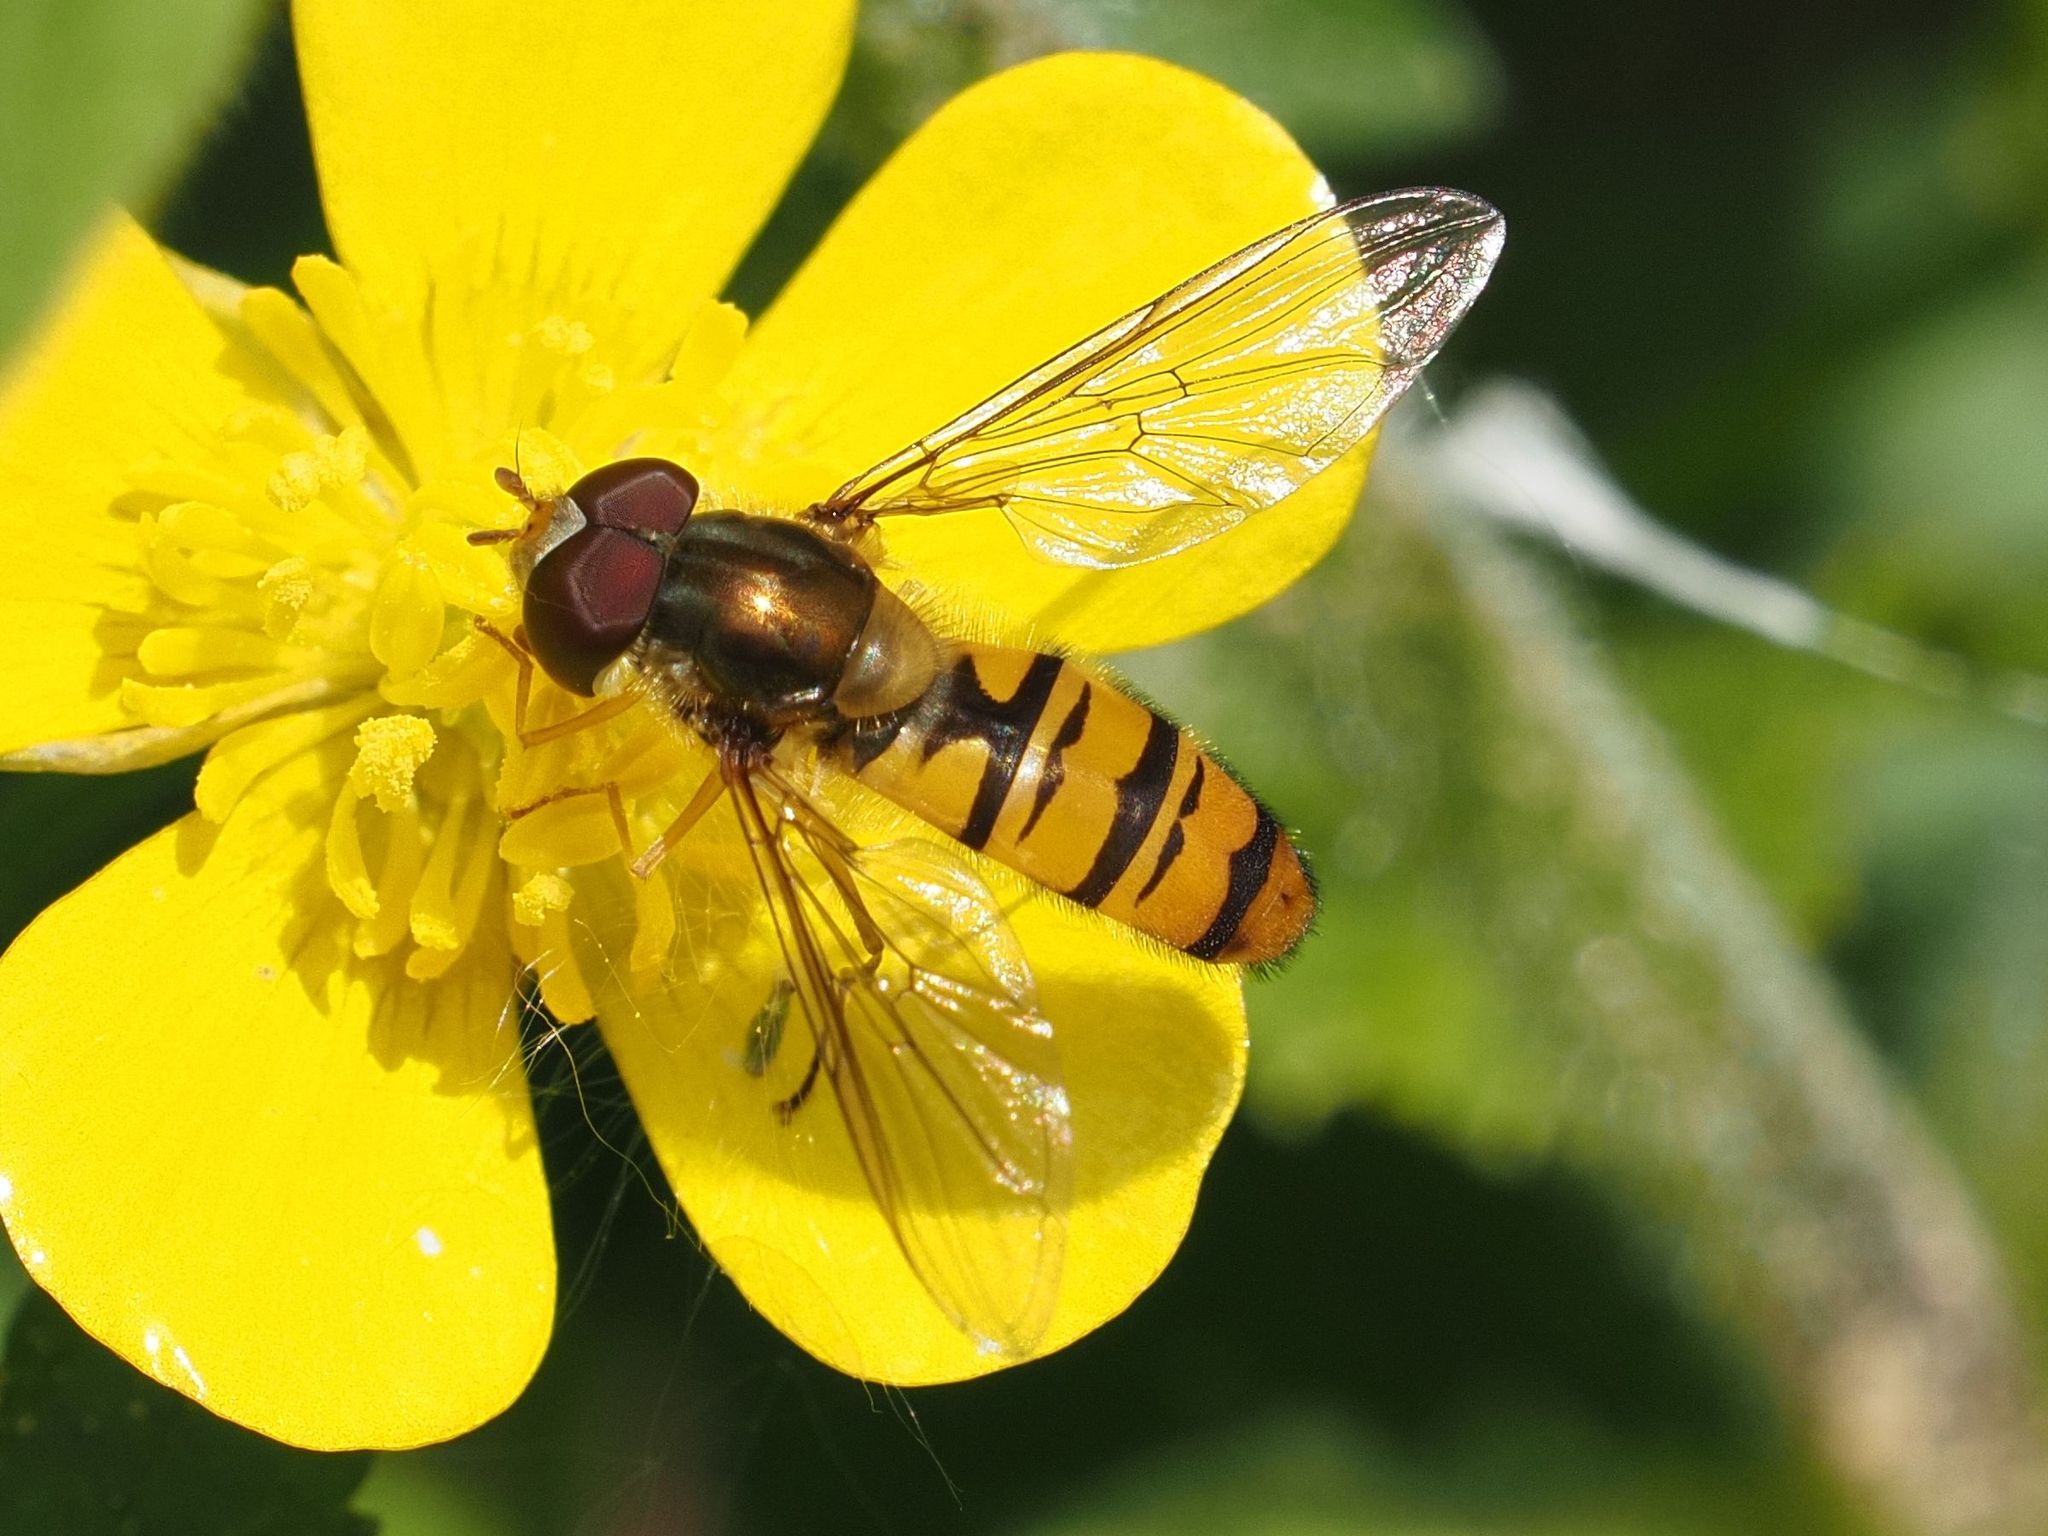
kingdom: Animalia
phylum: Arthropoda
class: Insecta
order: Diptera
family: Syrphidae
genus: Episyrphus
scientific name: Episyrphus balteatus
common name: Marmalade hoverfly
